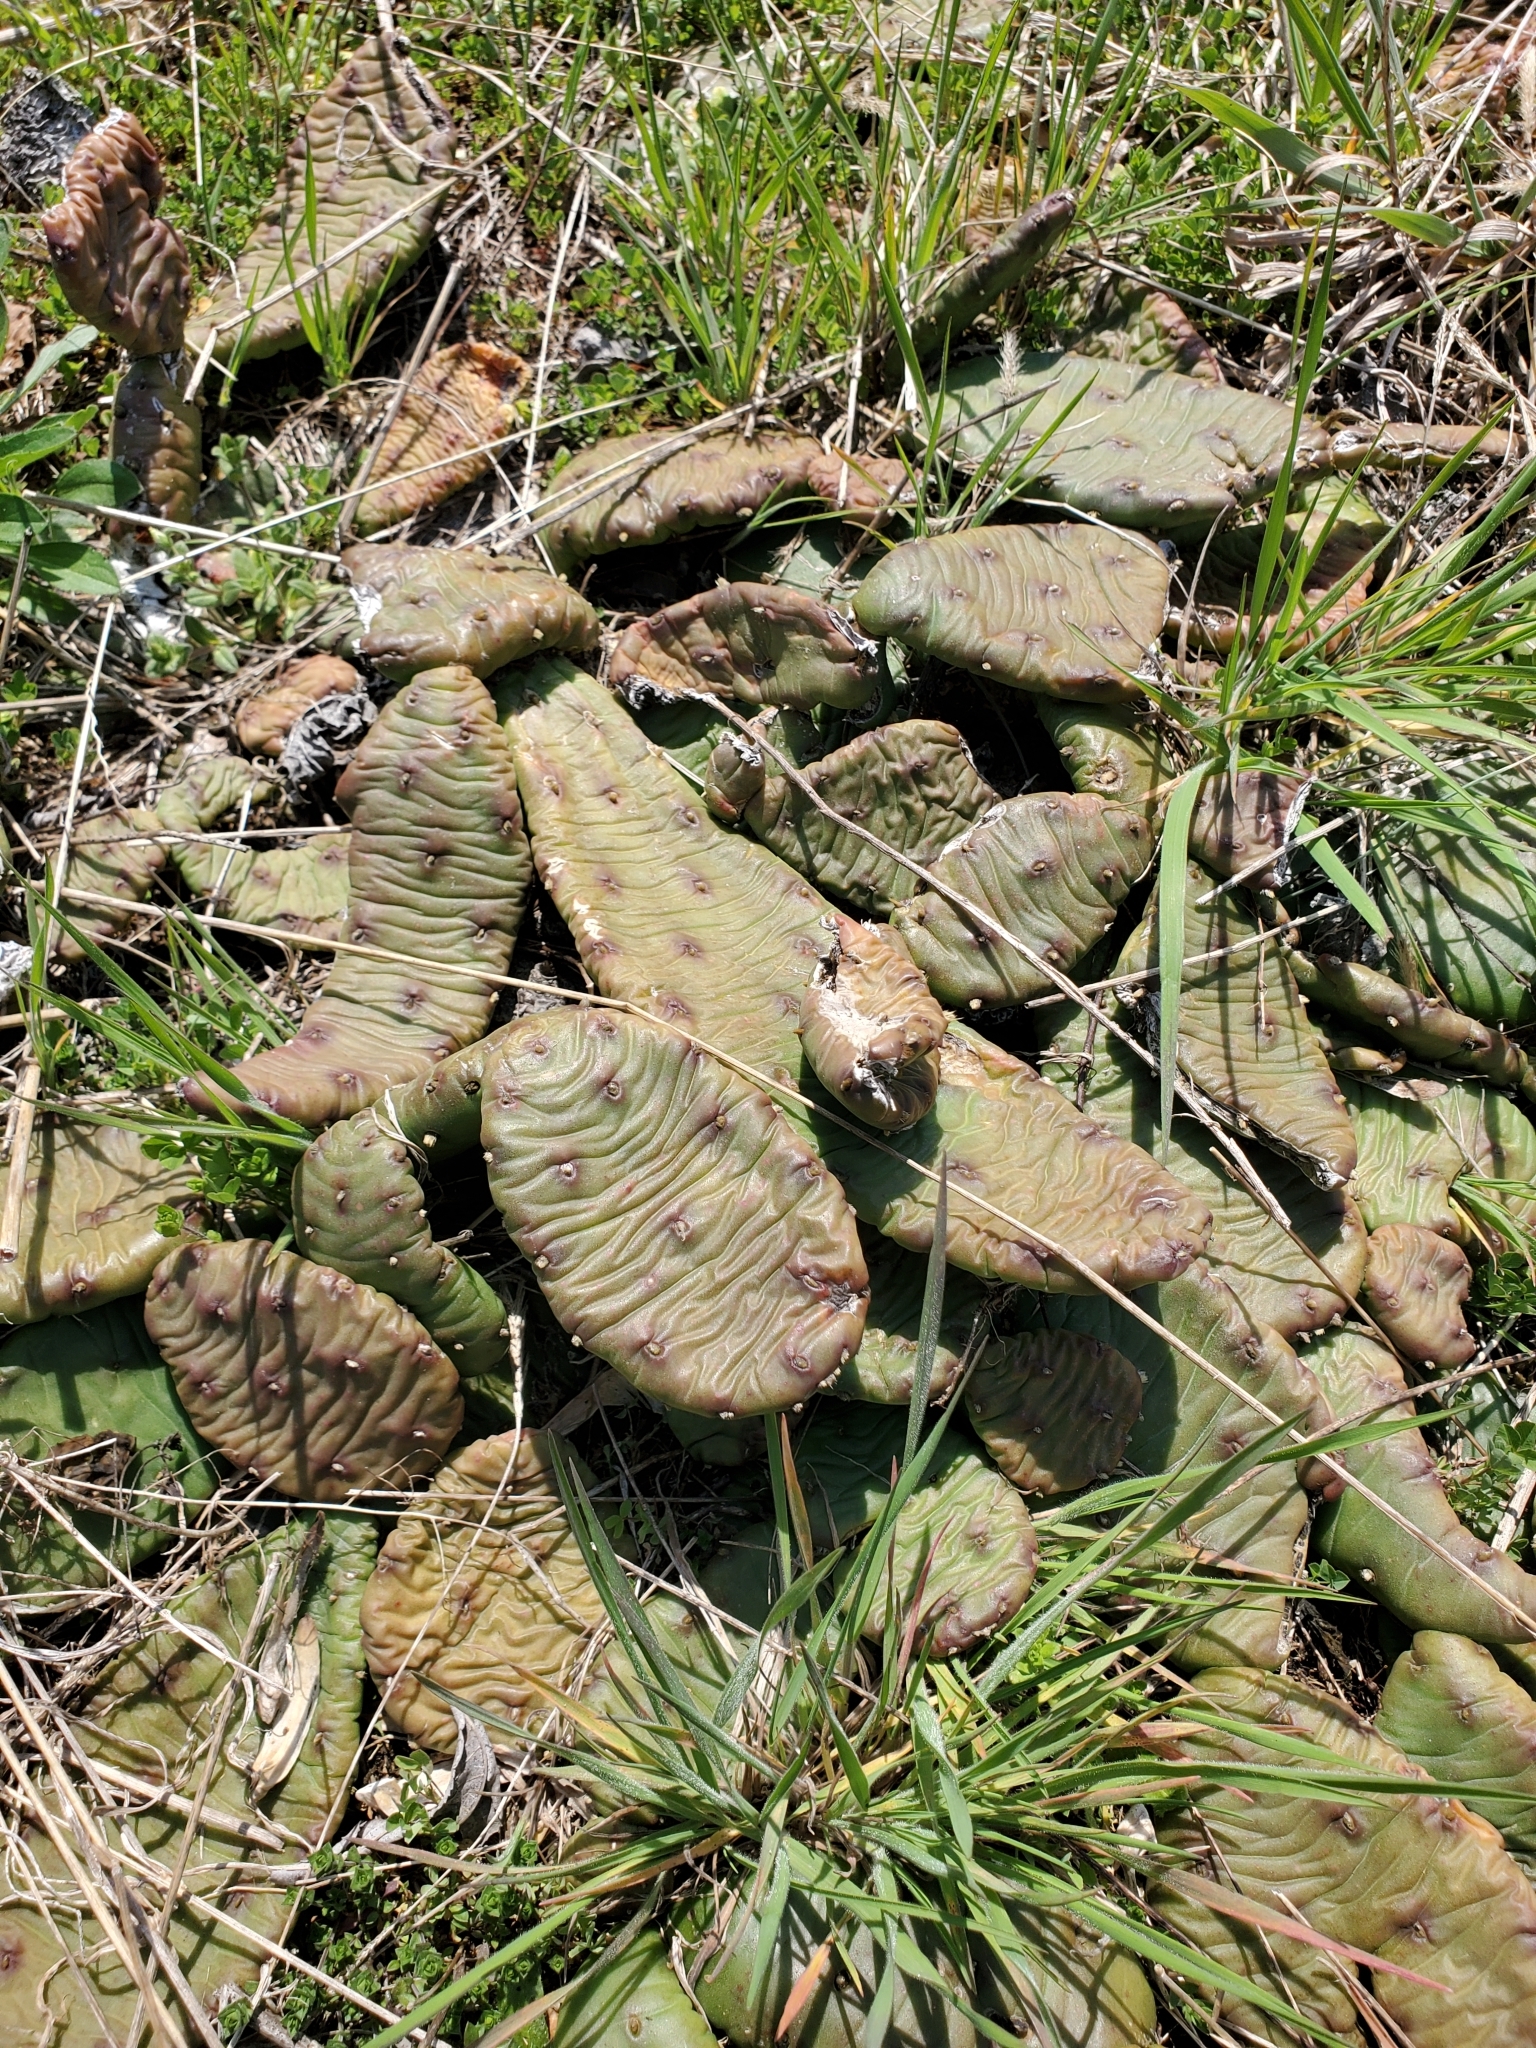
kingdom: Plantae
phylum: Tracheophyta
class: Magnoliopsida
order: Caryophyllales
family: Cactaceae
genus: Opuntia
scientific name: Opuntia humifusa
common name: Eastern prickly-pear
